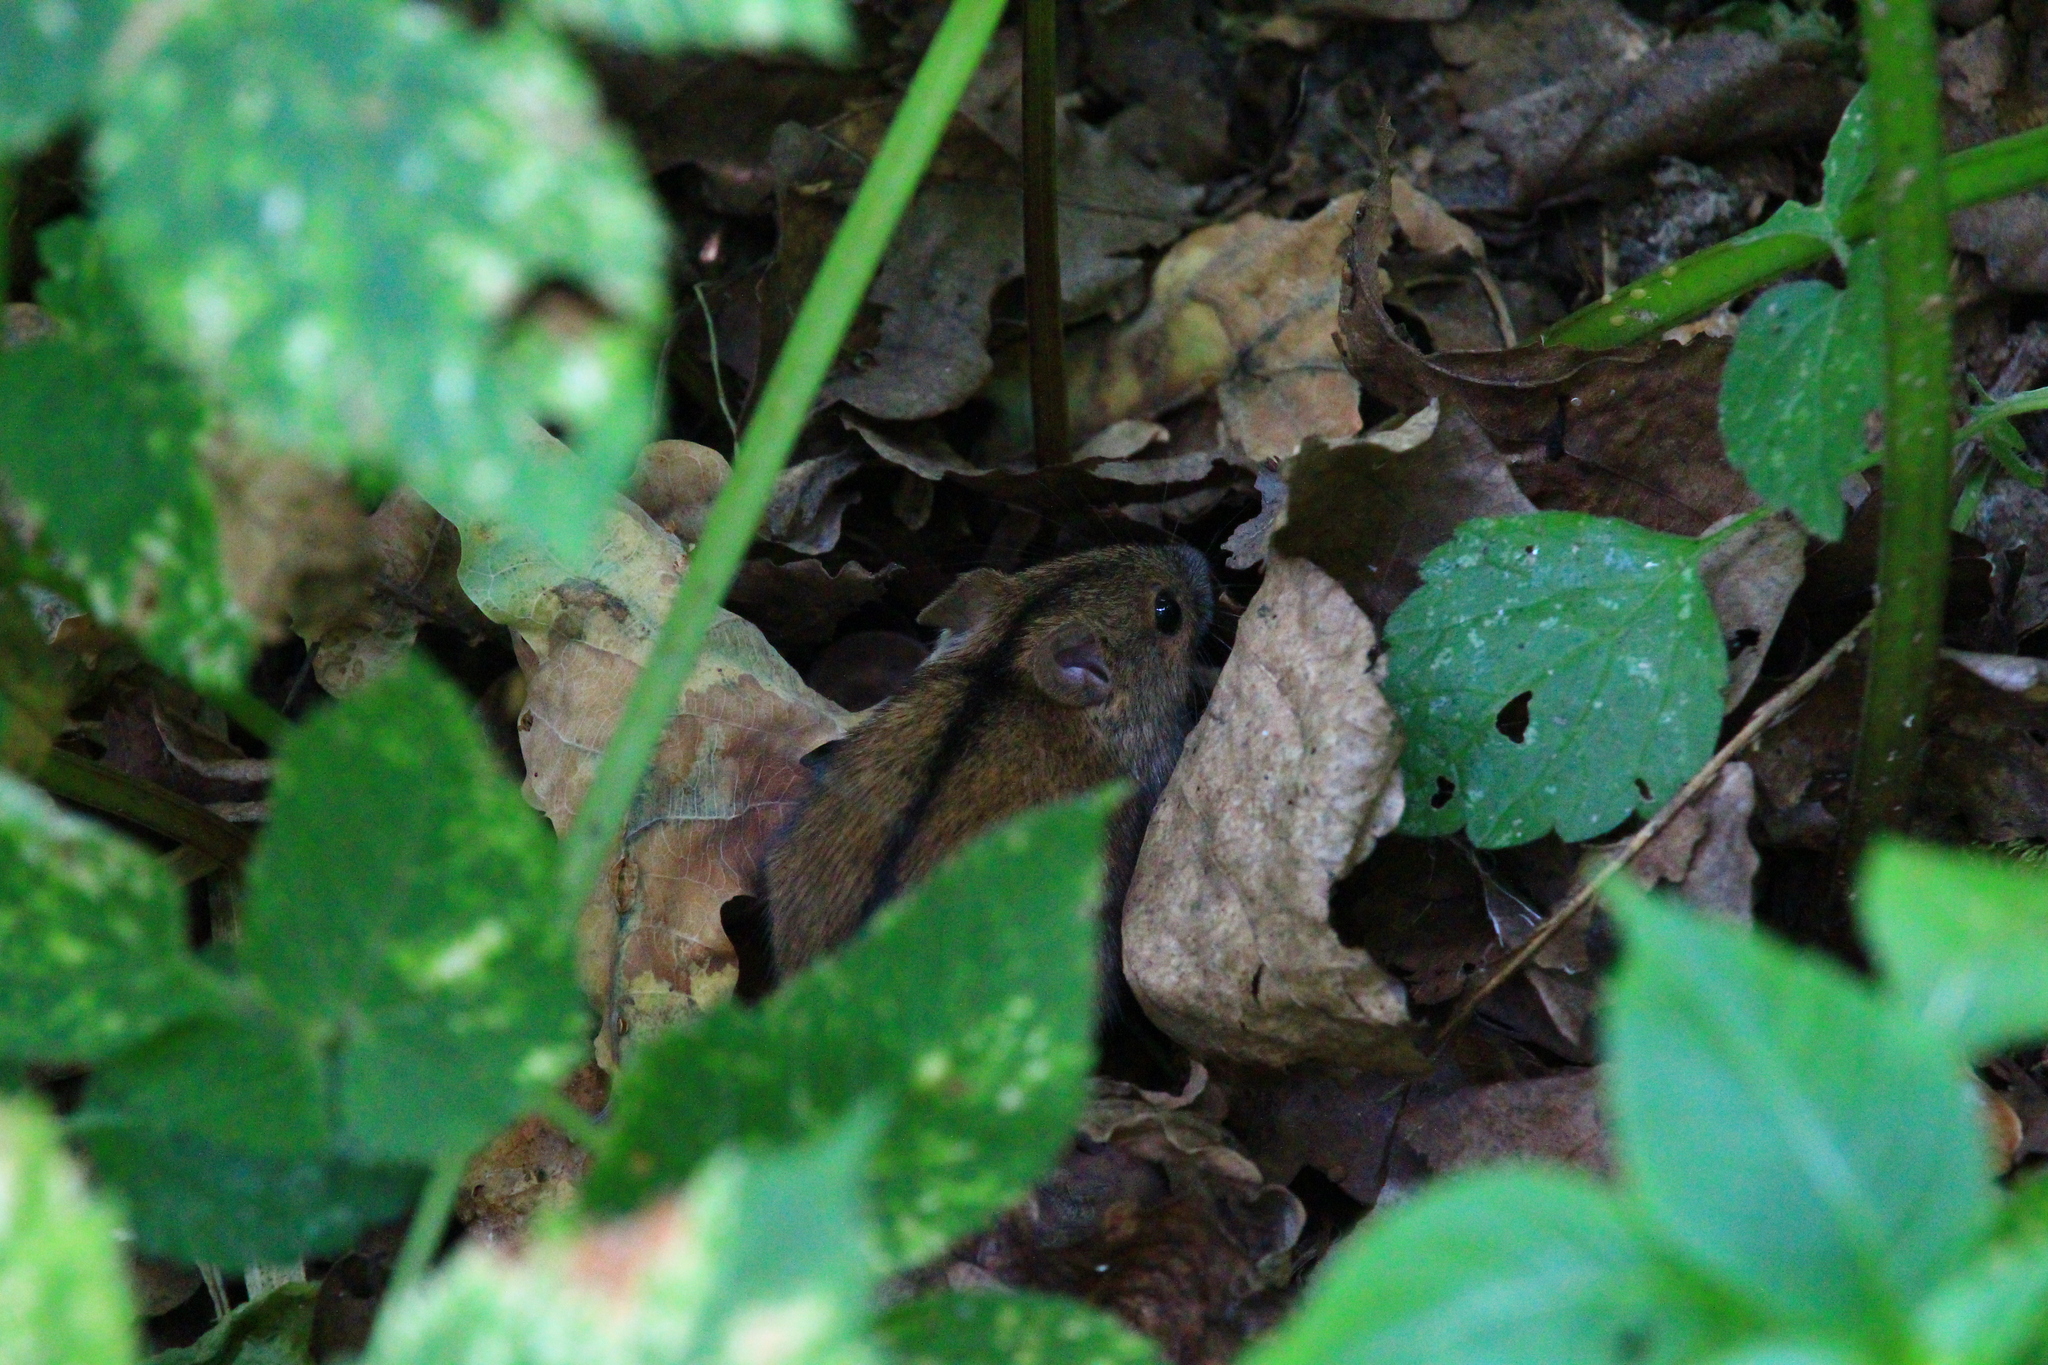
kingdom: Animalia
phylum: Chordata
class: Mammalia
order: Rodentia
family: Muridae
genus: Apodemus
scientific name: Apodemus agrarius
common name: Striped field mouse
